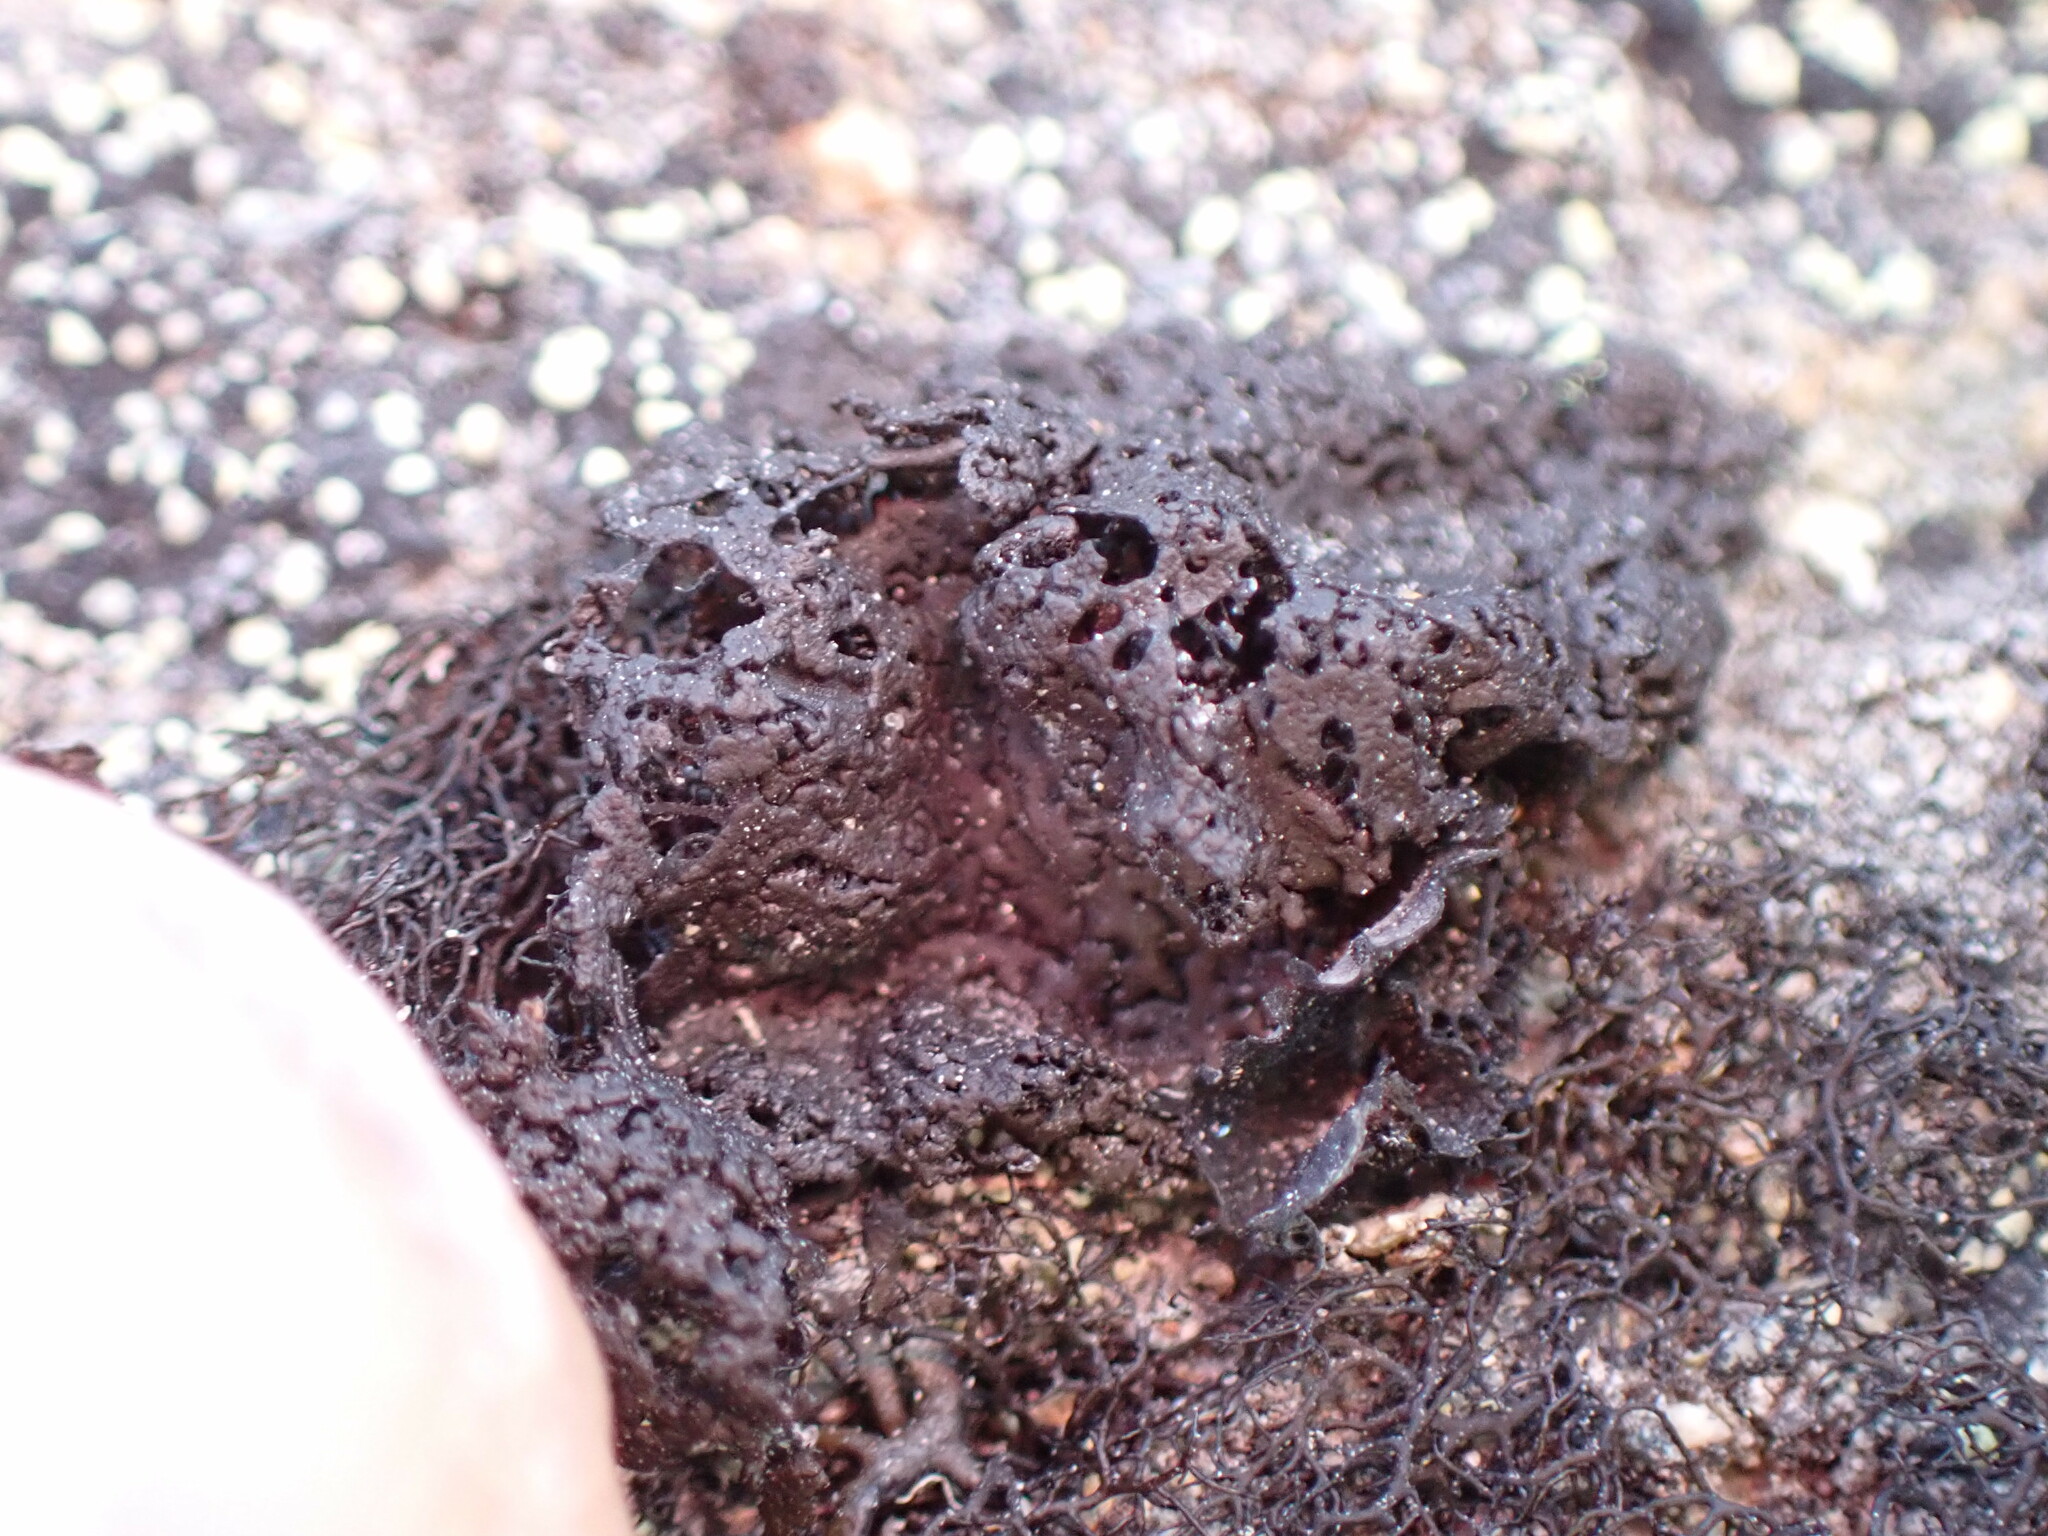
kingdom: Fungi
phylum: Ascomycota
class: Lecanoromycetes
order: Umbilicariales
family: Umbilicariaceae
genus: Umbilicaria
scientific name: Umbilicaria torrefacta
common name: Punctured rock tripe lichen
